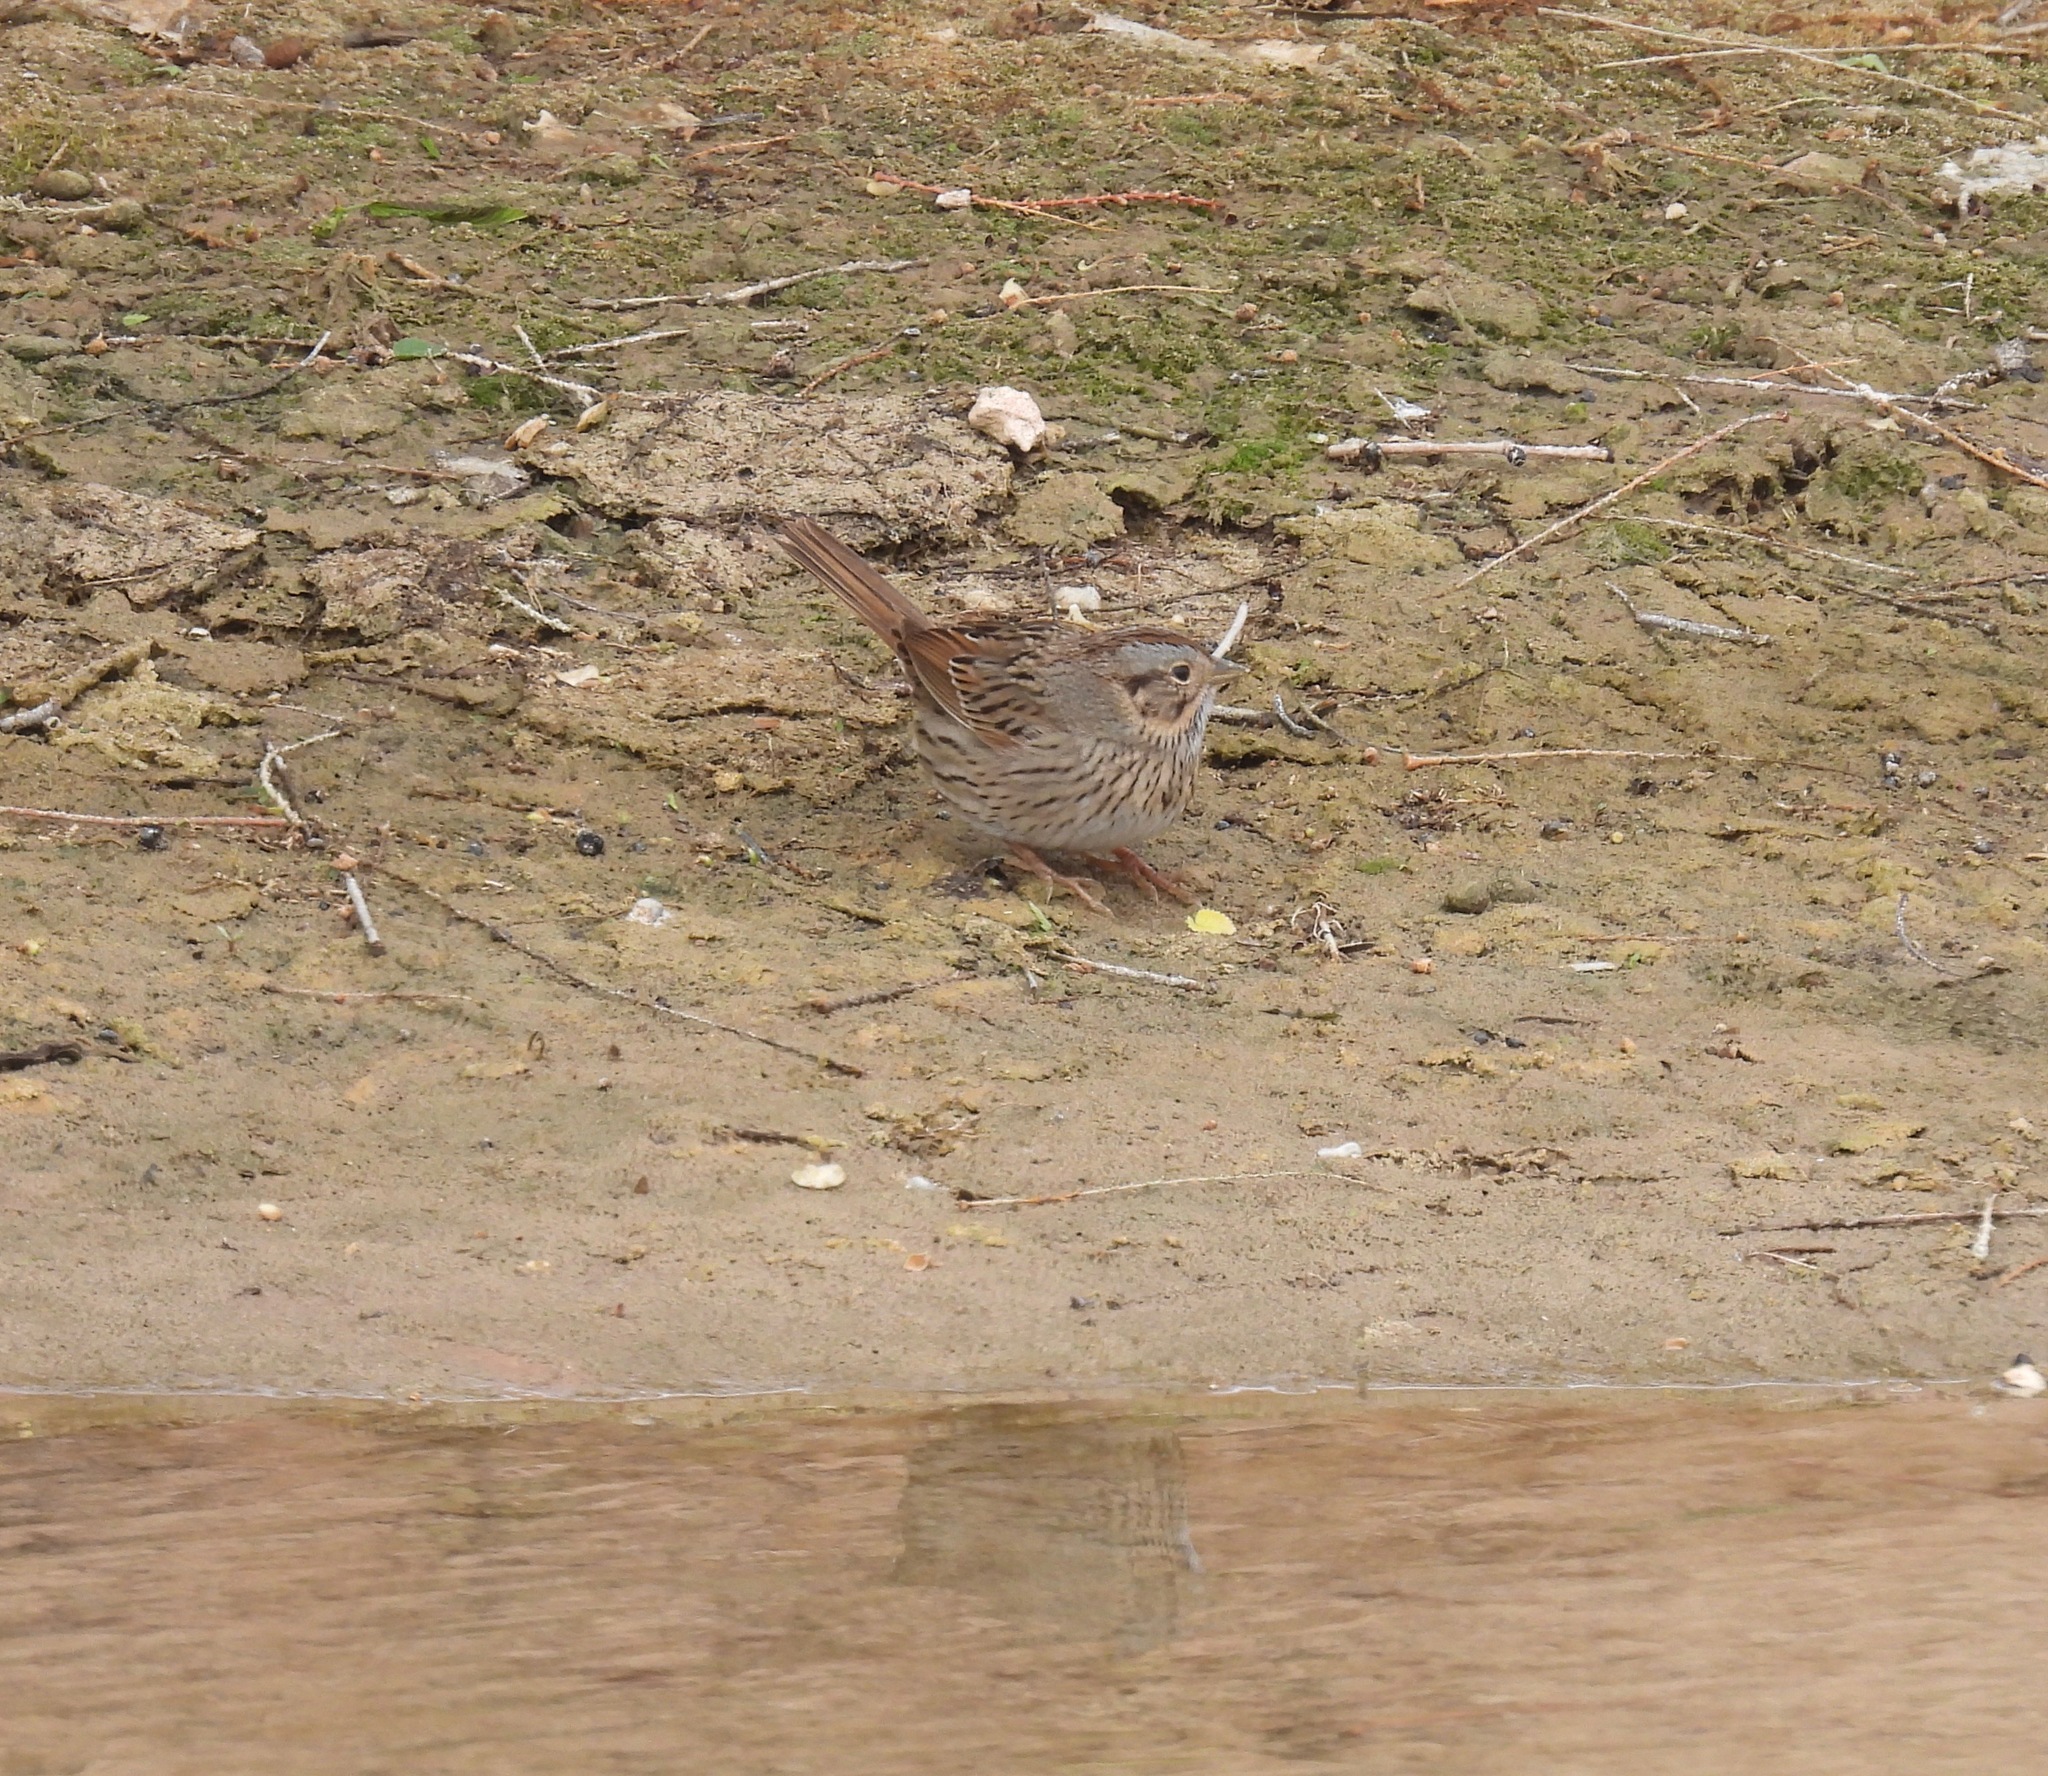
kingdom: Animalia
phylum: Chordata
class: Aves
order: Passeriformes
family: Passerellidae
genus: Melospiza
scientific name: Melospiza lincolnii
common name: Lincoln's sparrow
